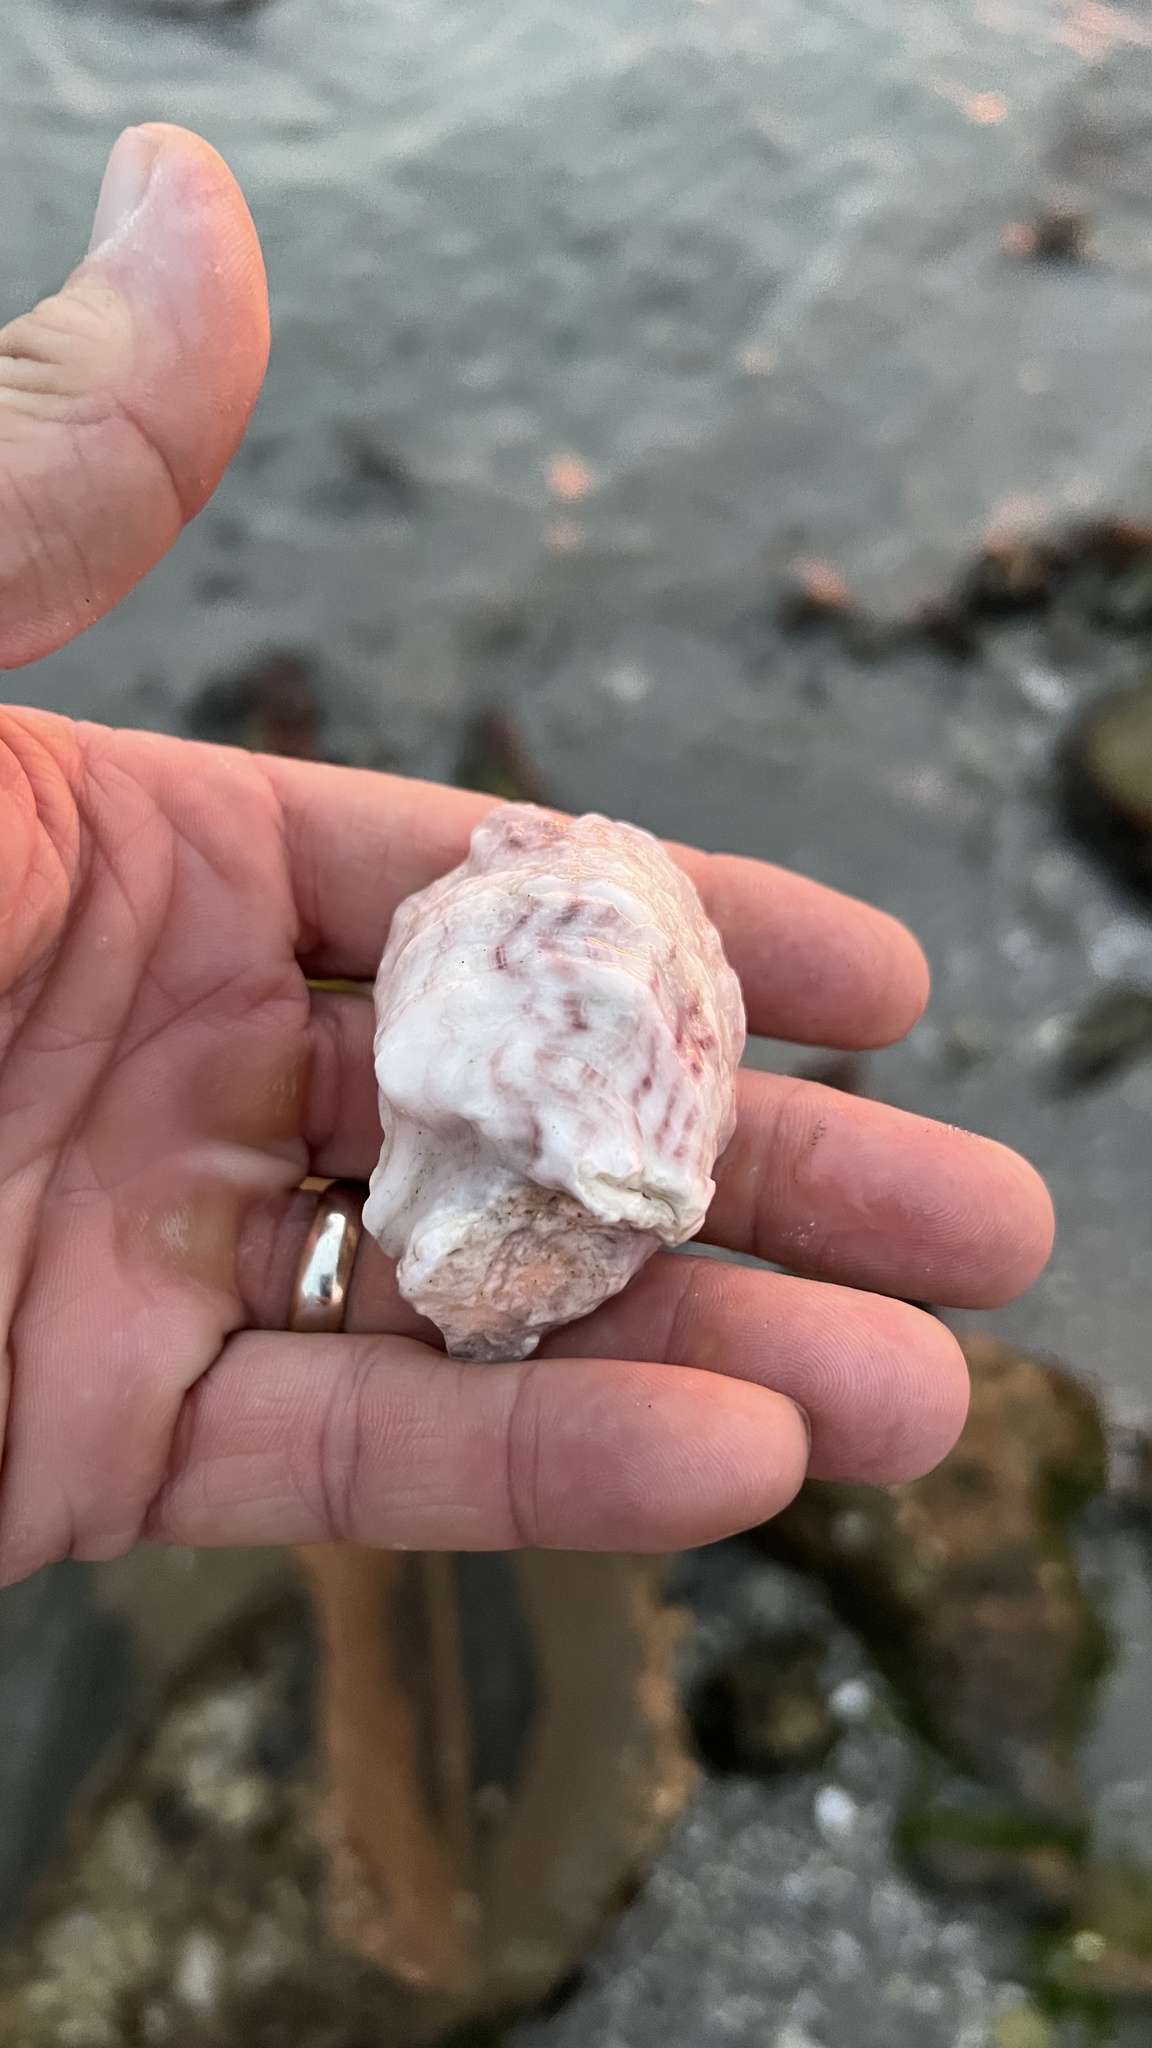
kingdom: Animalia
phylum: Mollusca
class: Bivalvia
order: Ostreida
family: Ostreidae
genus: Crassostrea
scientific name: Crassostrea virginica
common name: American oyster
